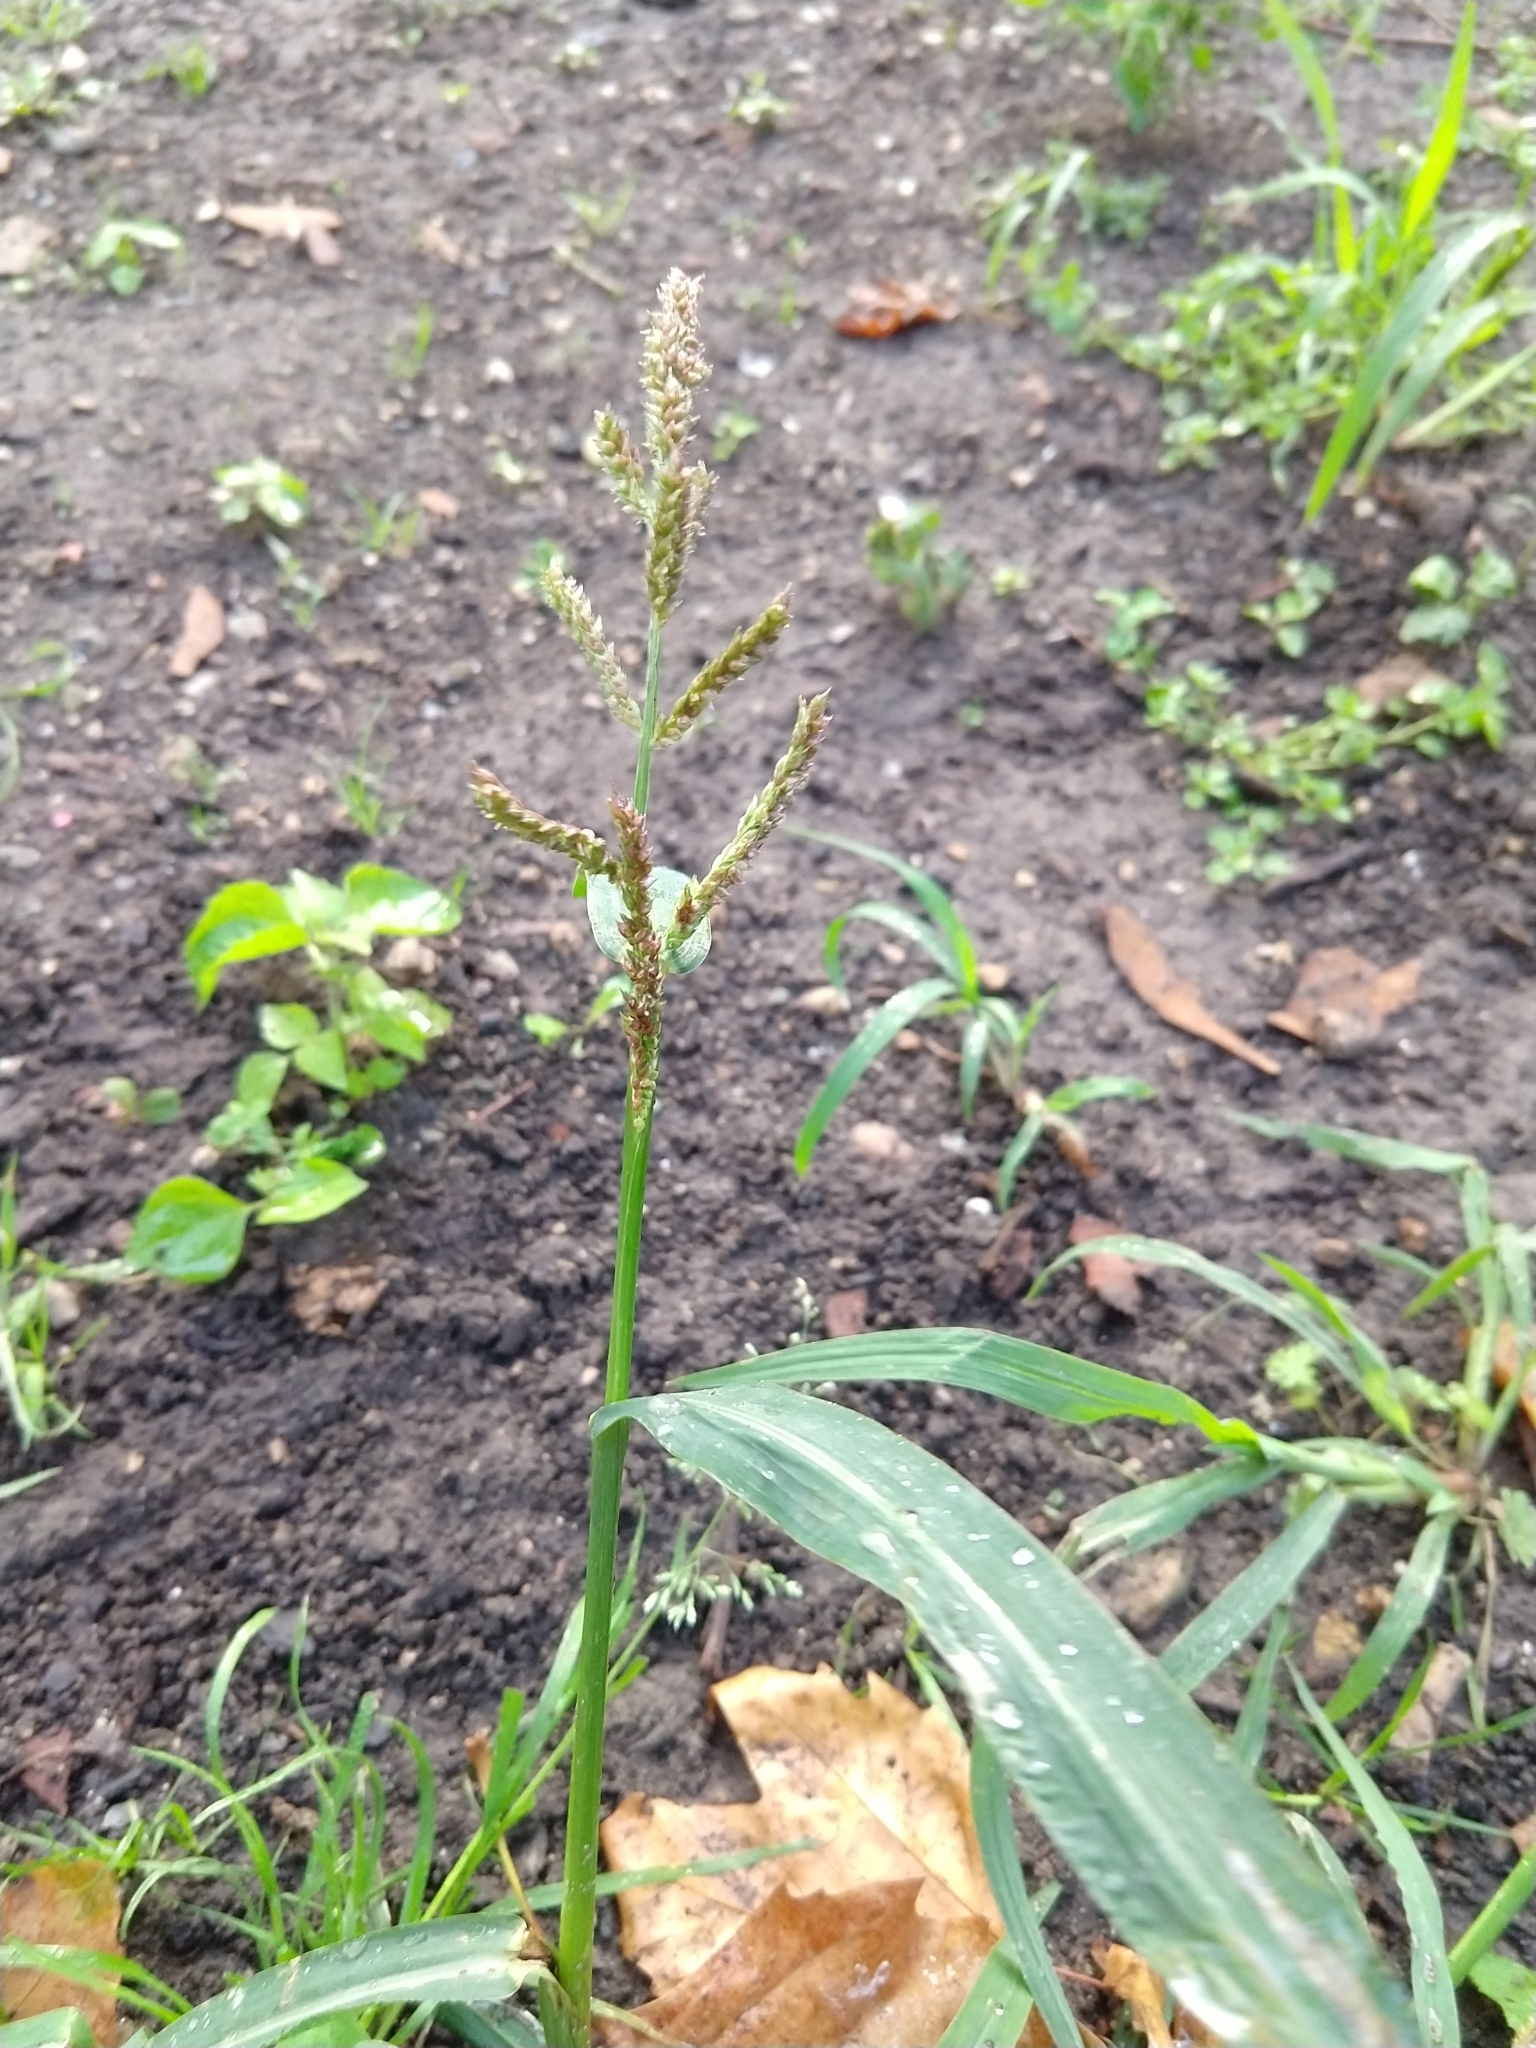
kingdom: Plantae
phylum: Tracheophyta
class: Liliopsida
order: Poales
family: Poaceae
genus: Echinochloa
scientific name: Echinochloa crus-galli
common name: Cockspur
